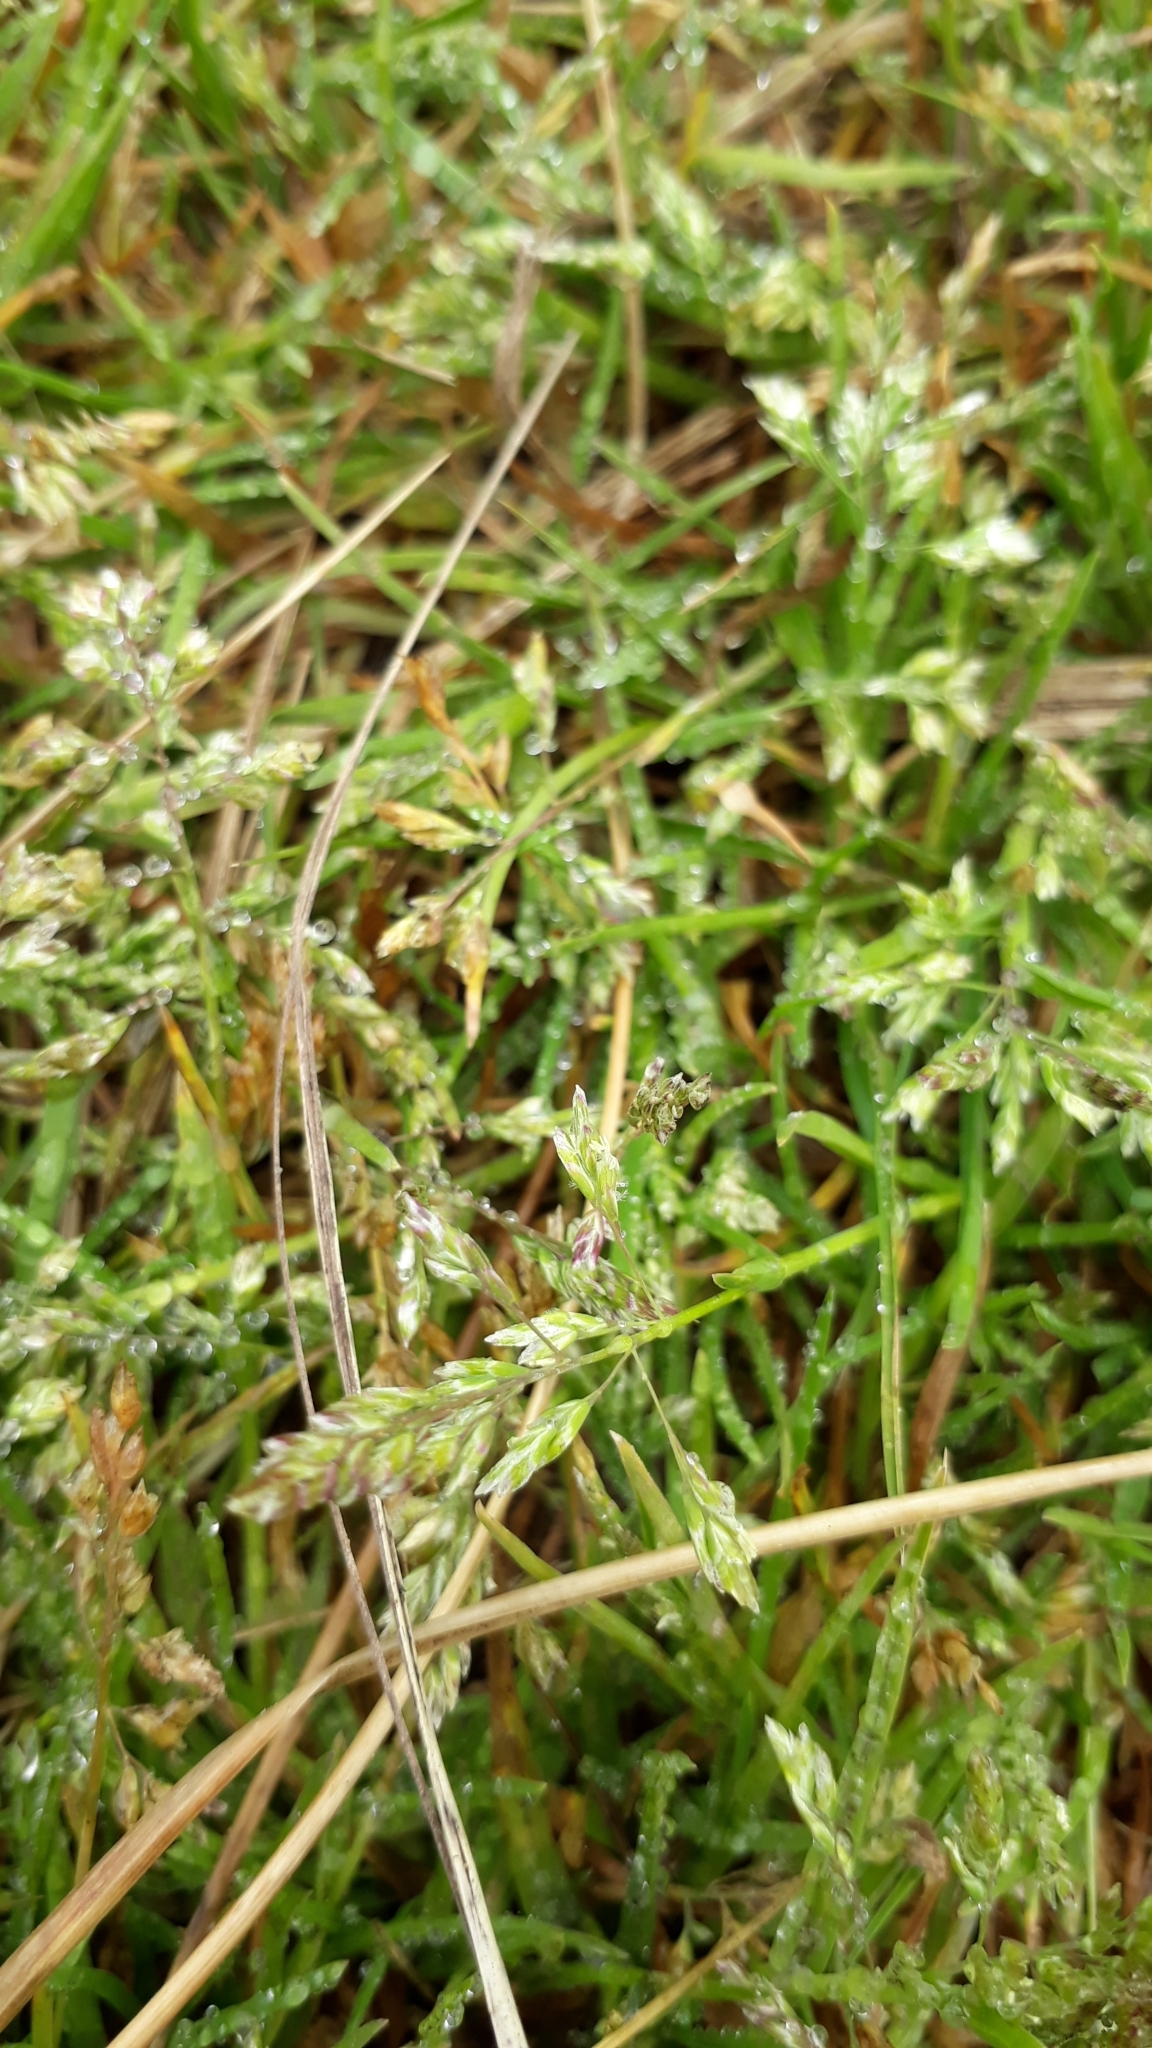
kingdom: Plantae
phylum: Tracheophyta
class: Liliopsida
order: Poales
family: Poaceae
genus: Poa
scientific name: Poa annua
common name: Annual bluegrass
